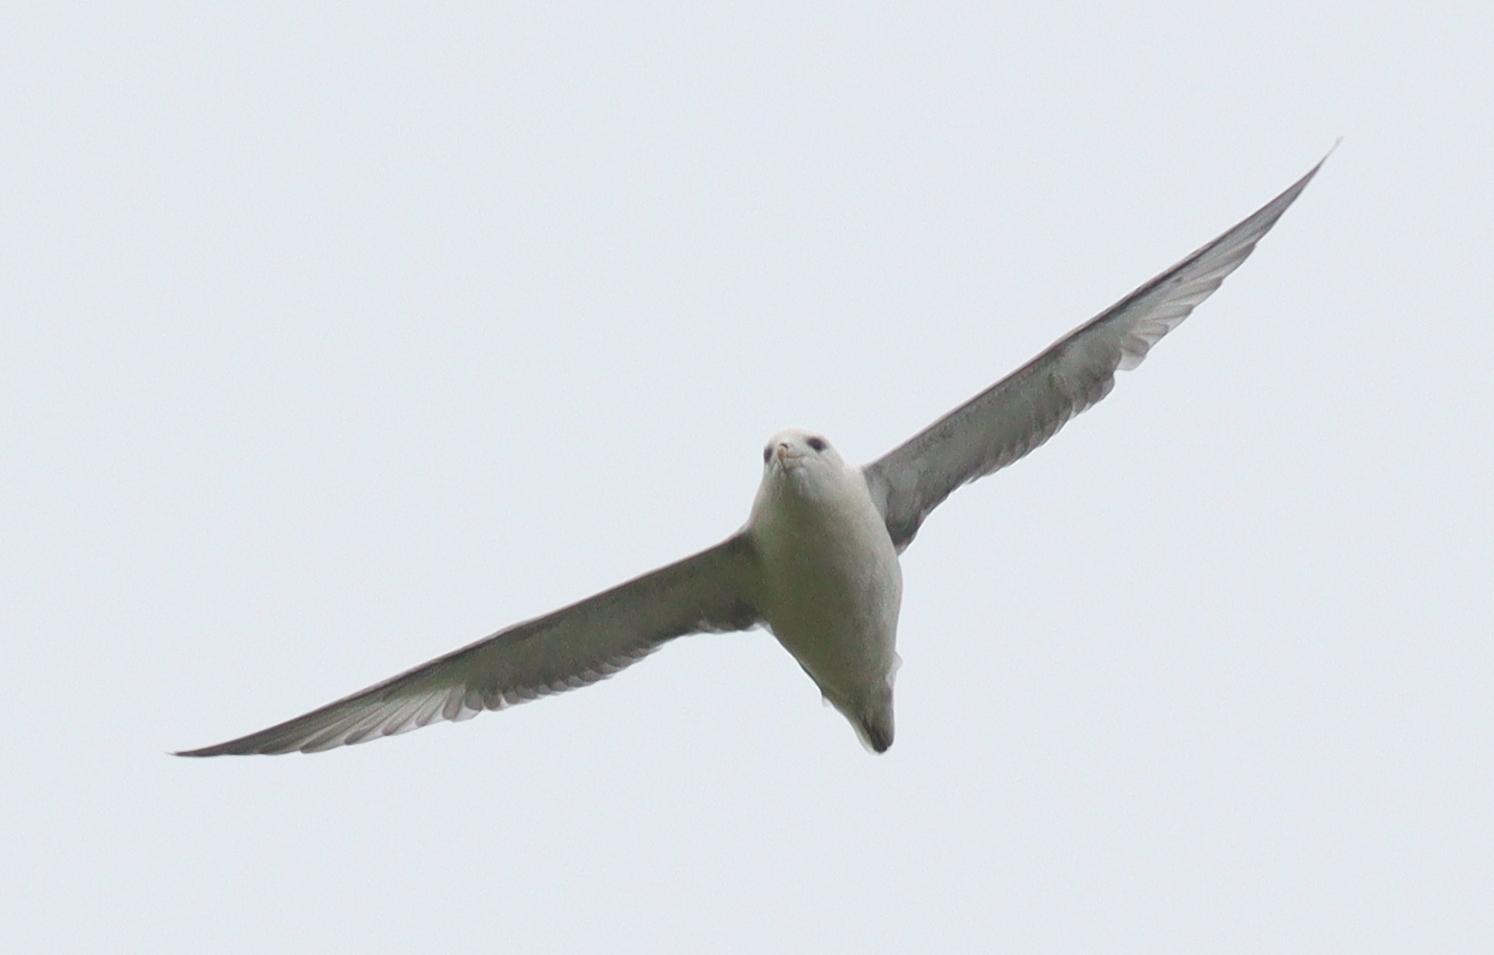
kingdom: Animalia
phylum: Chordata
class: Aves
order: Procellariiformes
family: Procellariidae
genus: Fulmarus
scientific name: Fulmarus glacialis
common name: Northern fulmar
